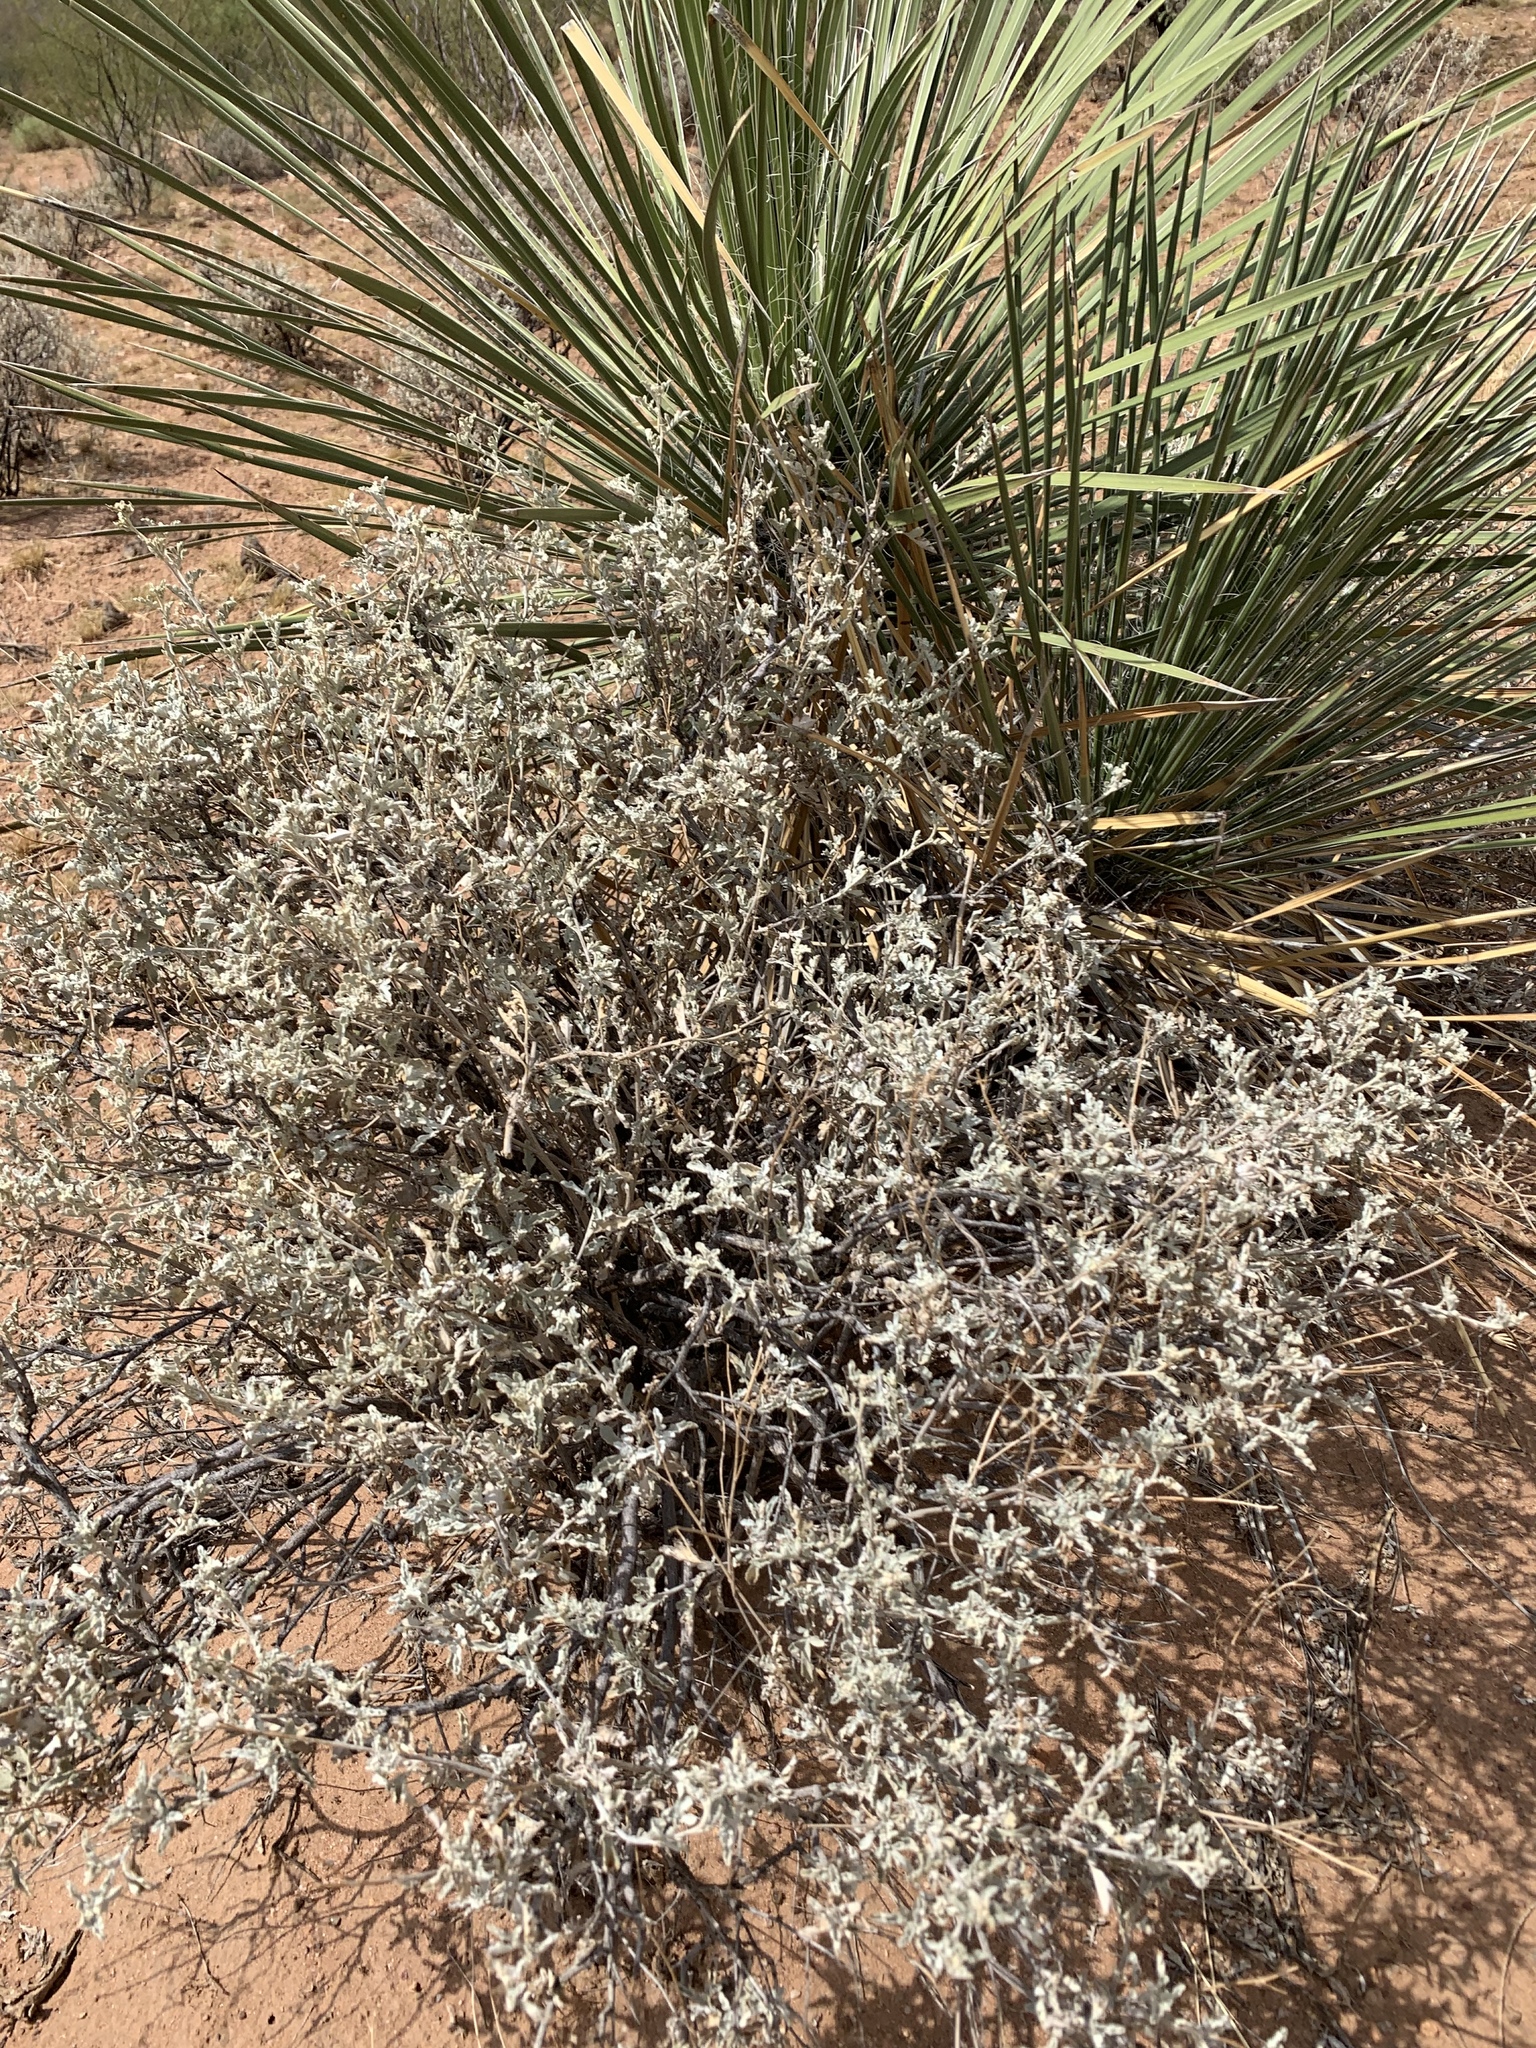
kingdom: Plantae
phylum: Tracheophyta
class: Magnoliopsida
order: Asterales
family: Asteraceae
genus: Parthenium
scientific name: Parthenium incanum
